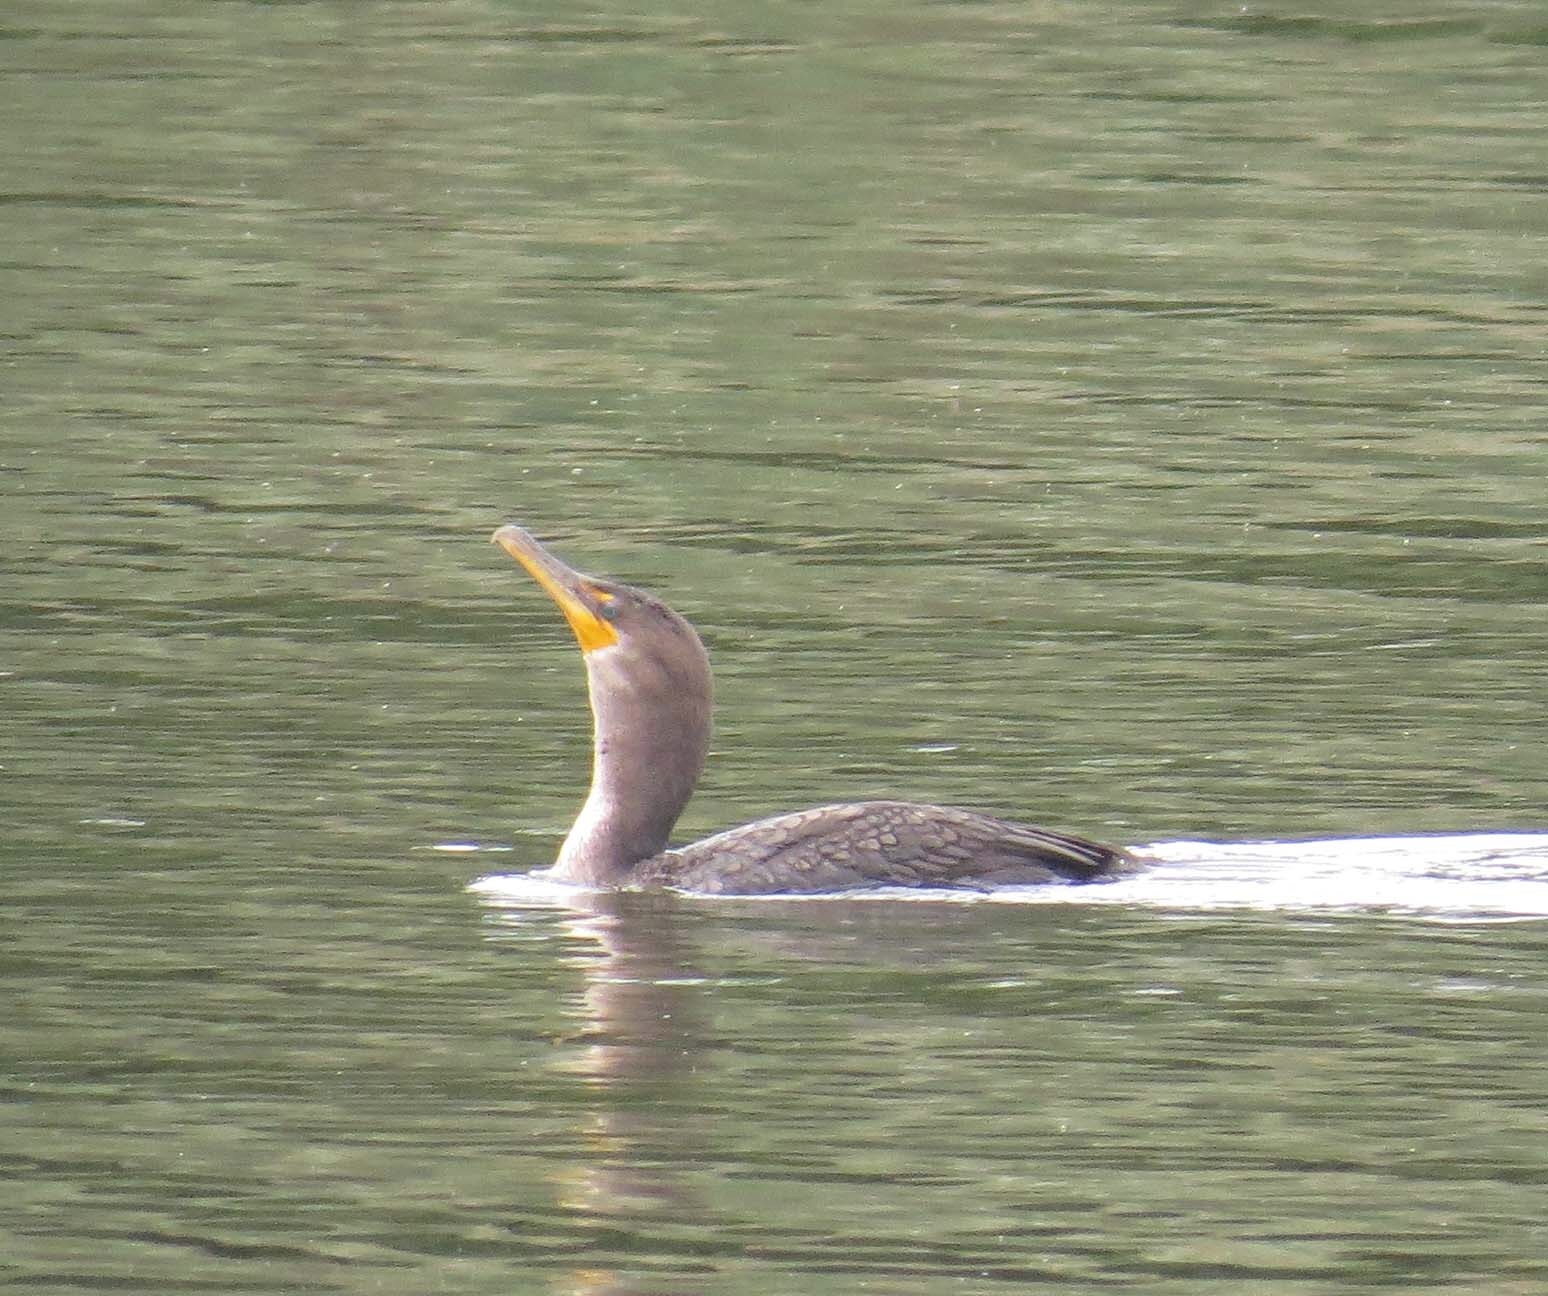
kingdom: Animalia
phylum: Chordata
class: Aves
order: Suliformes
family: Phalacrocoracidae
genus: Phalacrocorax
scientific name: Phalacrocorax auritus
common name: Double-crested cormorant
